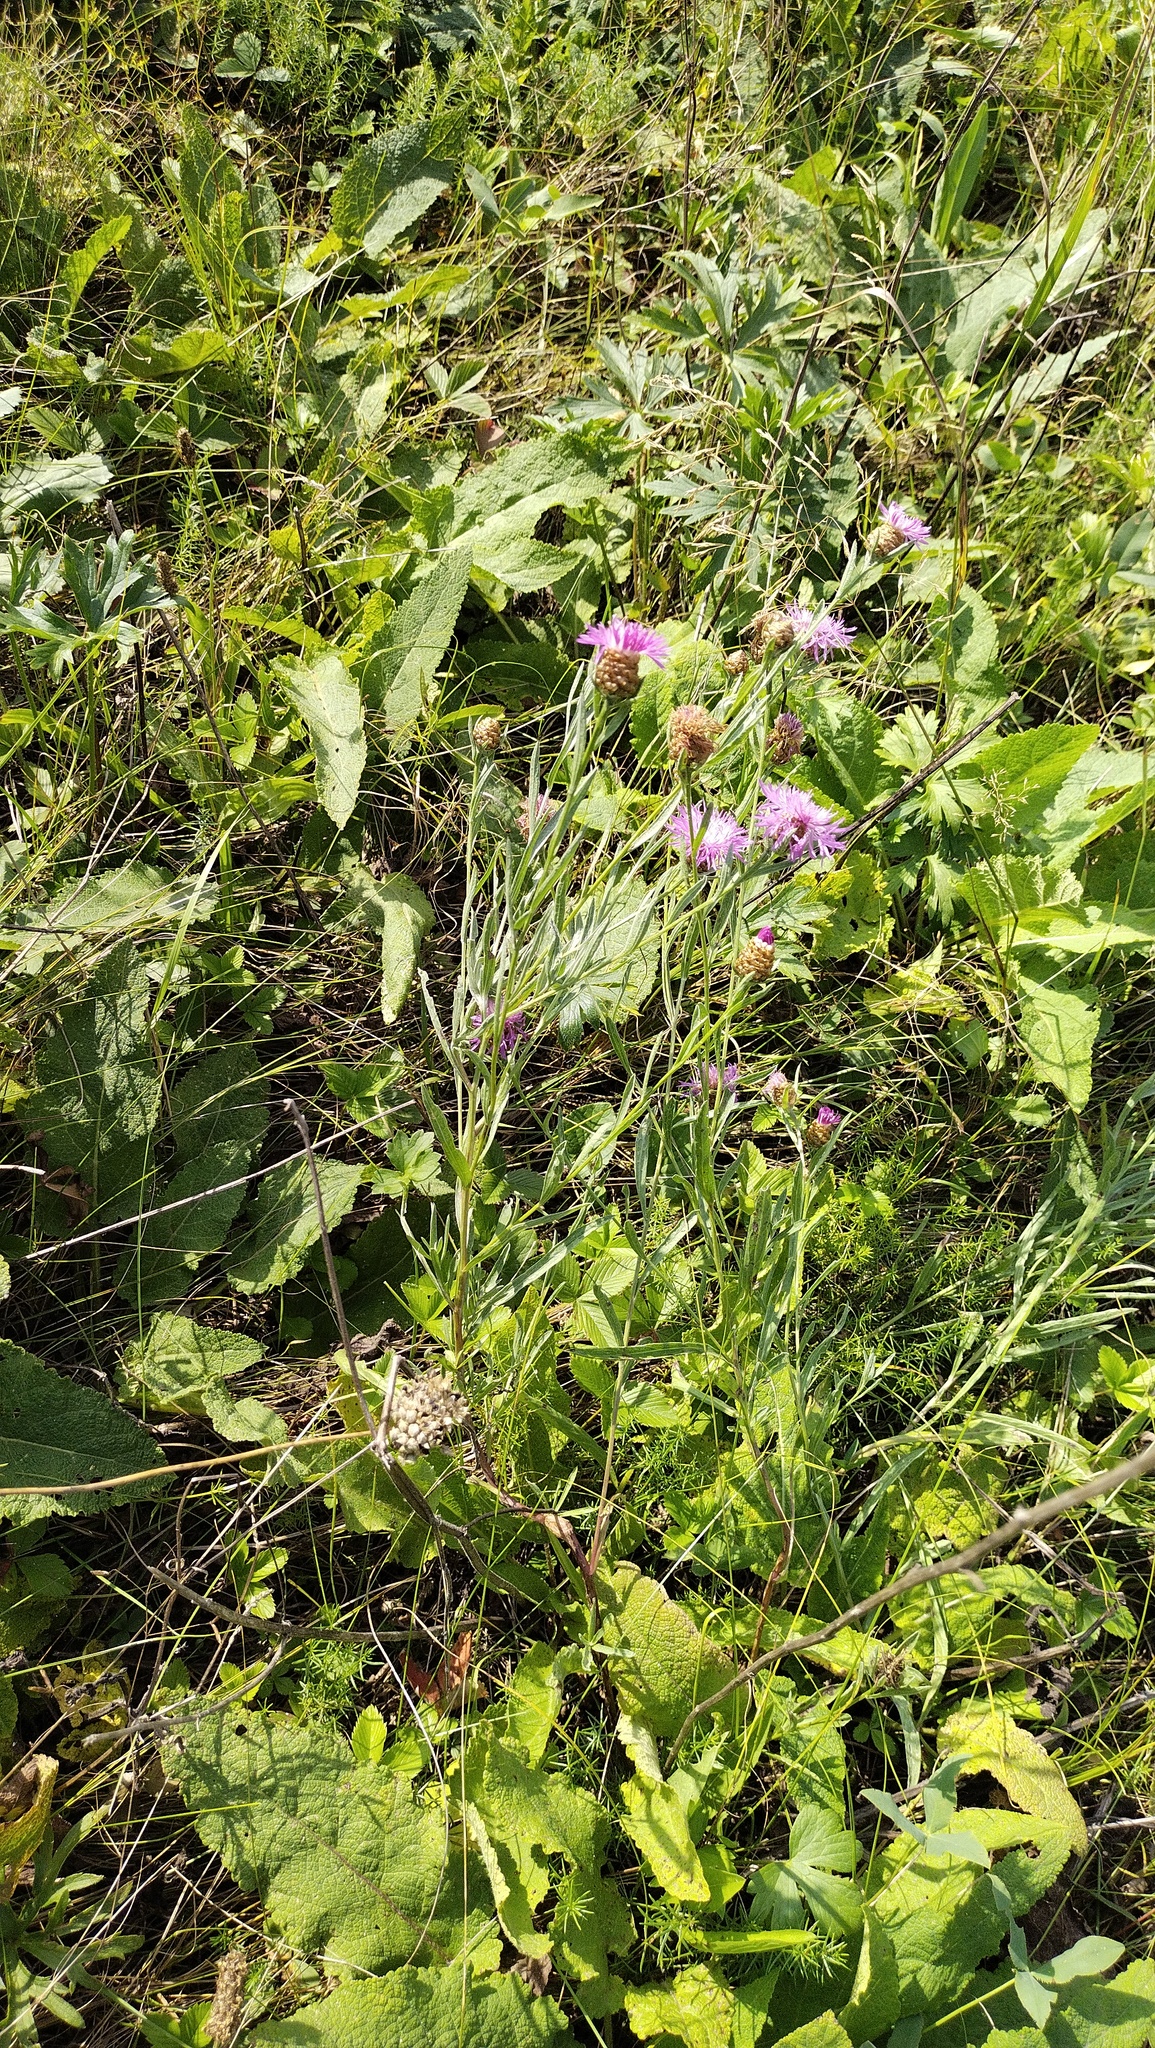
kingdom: Plantae
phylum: Tracheophyta
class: Magnoliopsida
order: Asterales
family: Asteraceae
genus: Centaurea
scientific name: Centaurea jacea
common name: Brown knapweed
